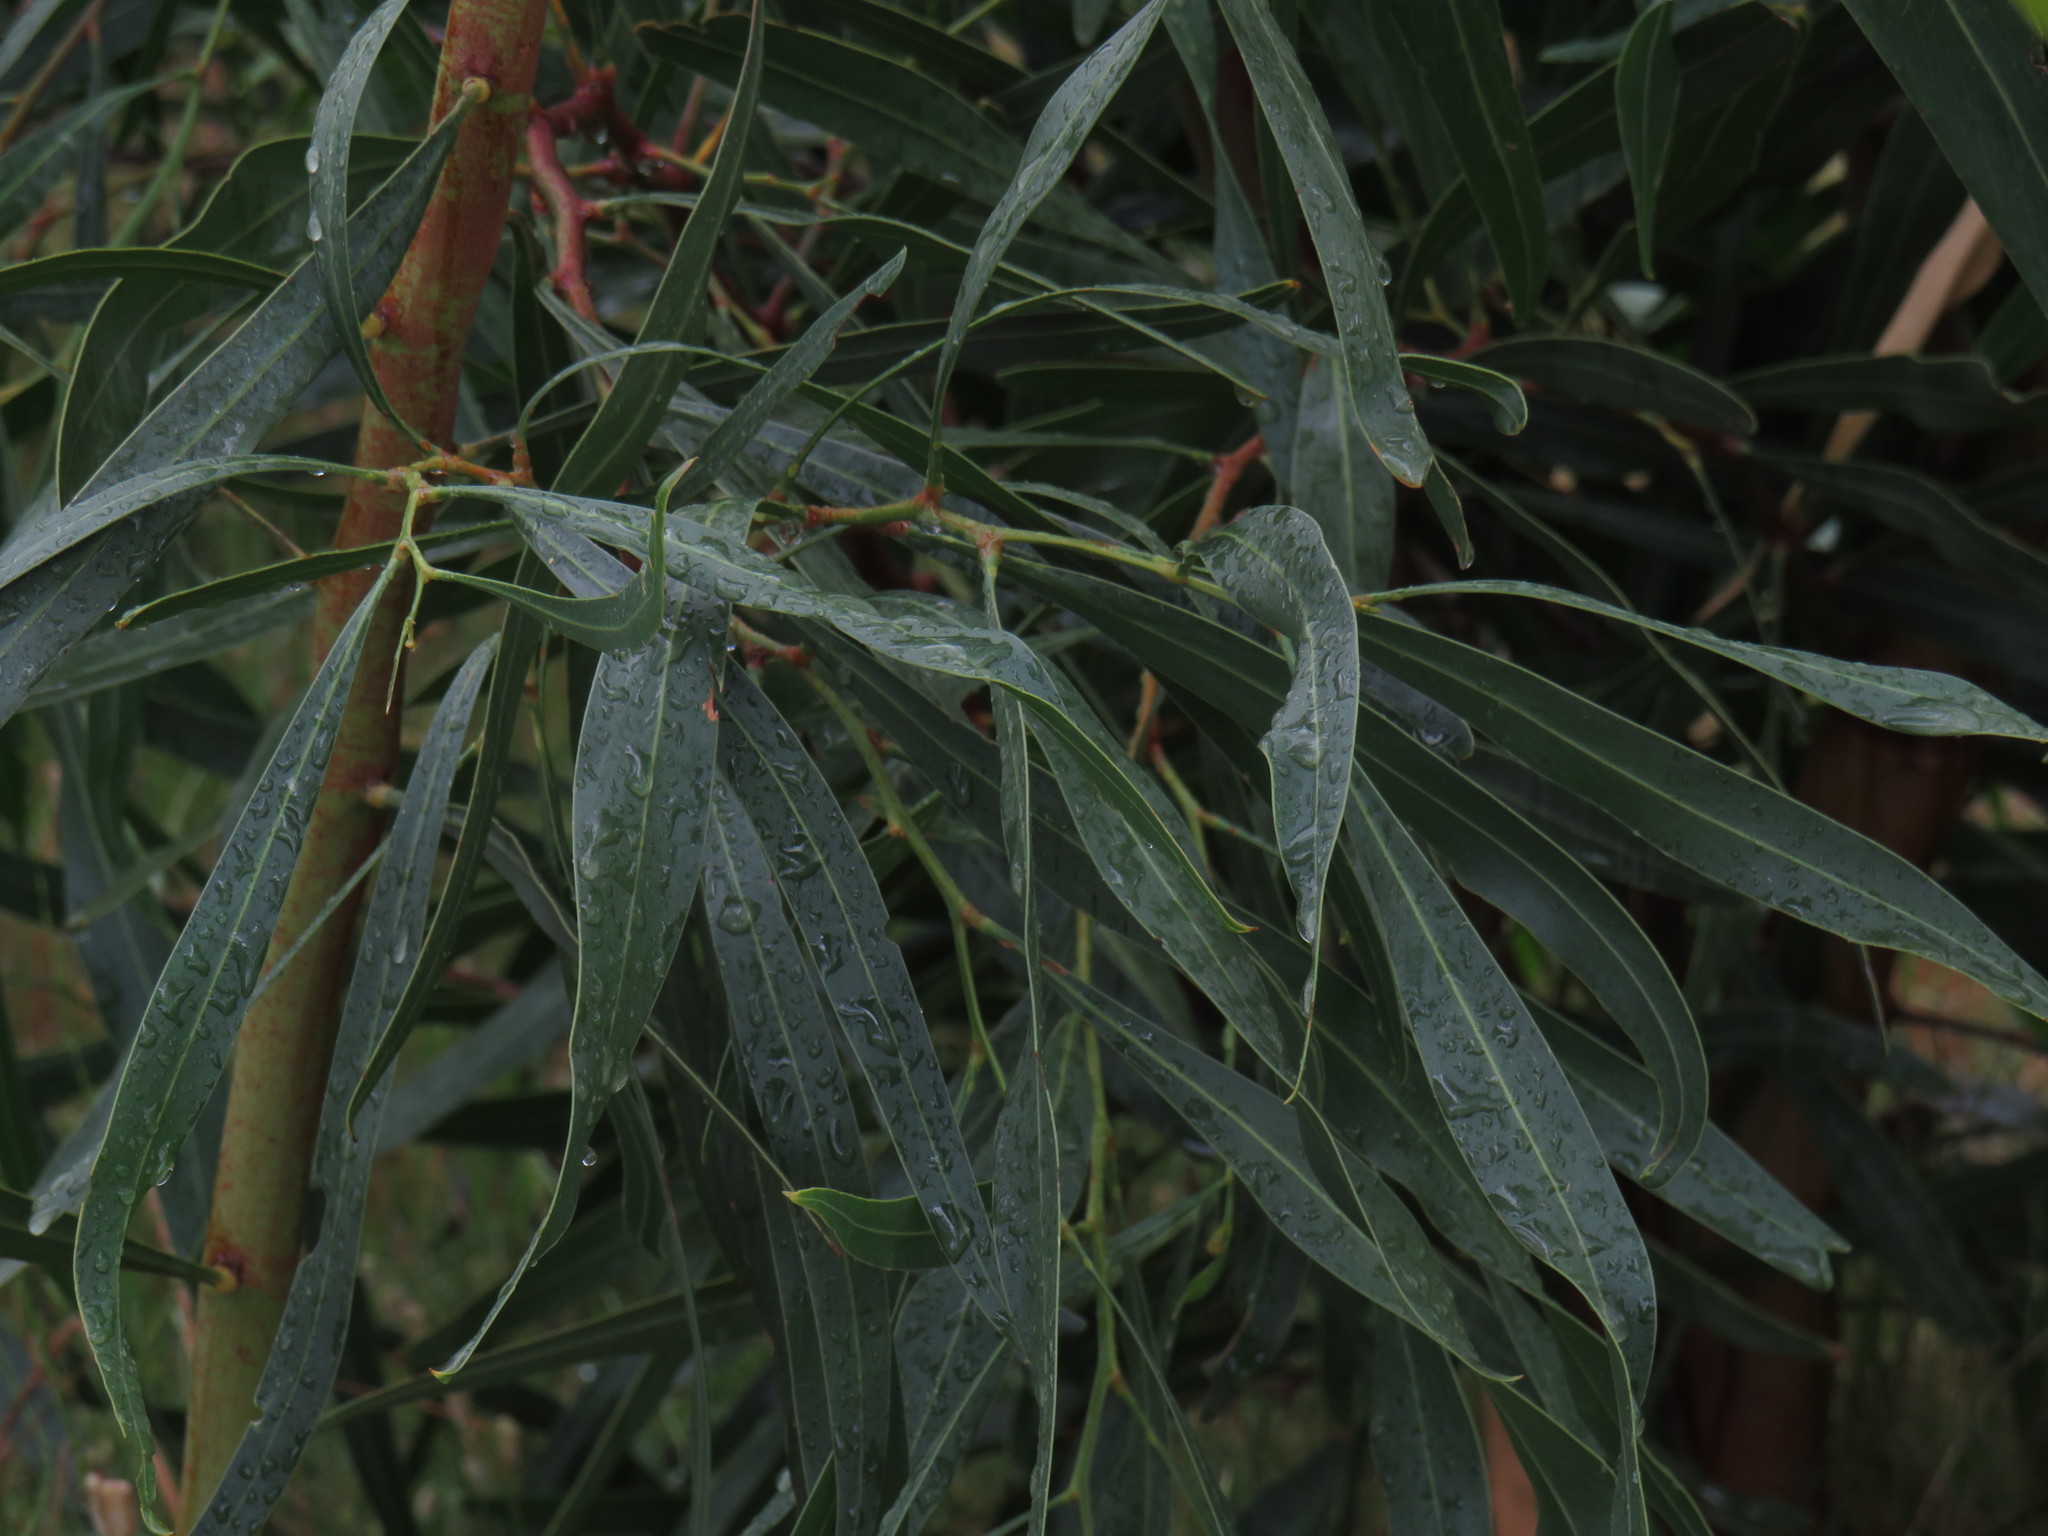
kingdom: Plantae
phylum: Tracheophyta
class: Magnoliopsida
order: Fabales
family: Fabaceae
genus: Acacia
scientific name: Acacia saligna
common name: Orange wattle
